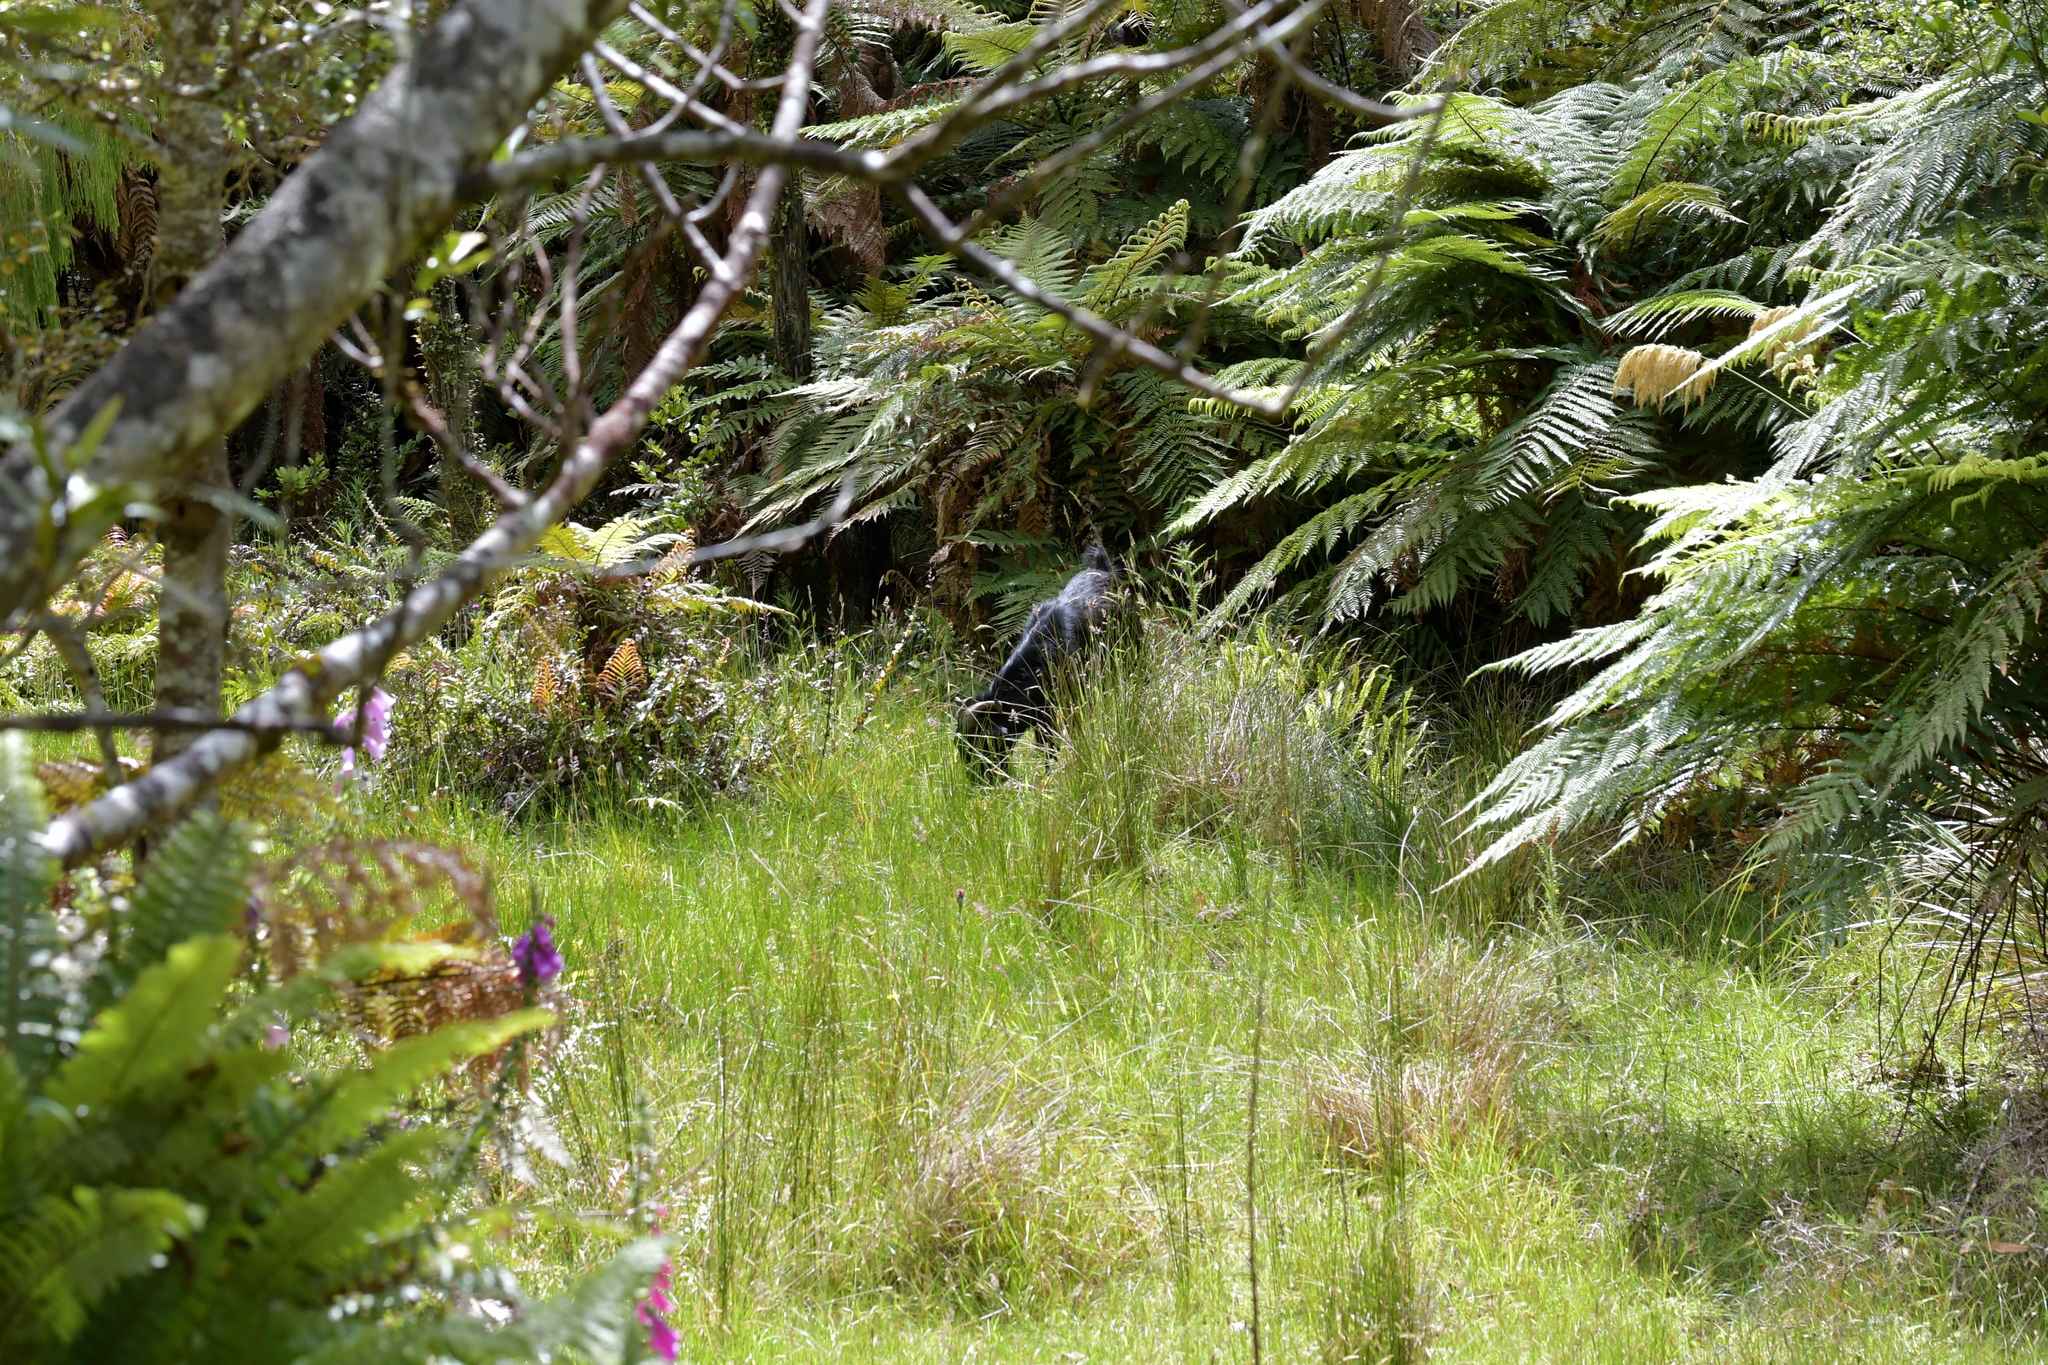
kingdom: Animalia
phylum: Chordata
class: Mammalia
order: Artiodactyla
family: Bovidae
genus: Capra
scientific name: Capra hircus
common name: Domestic goat
